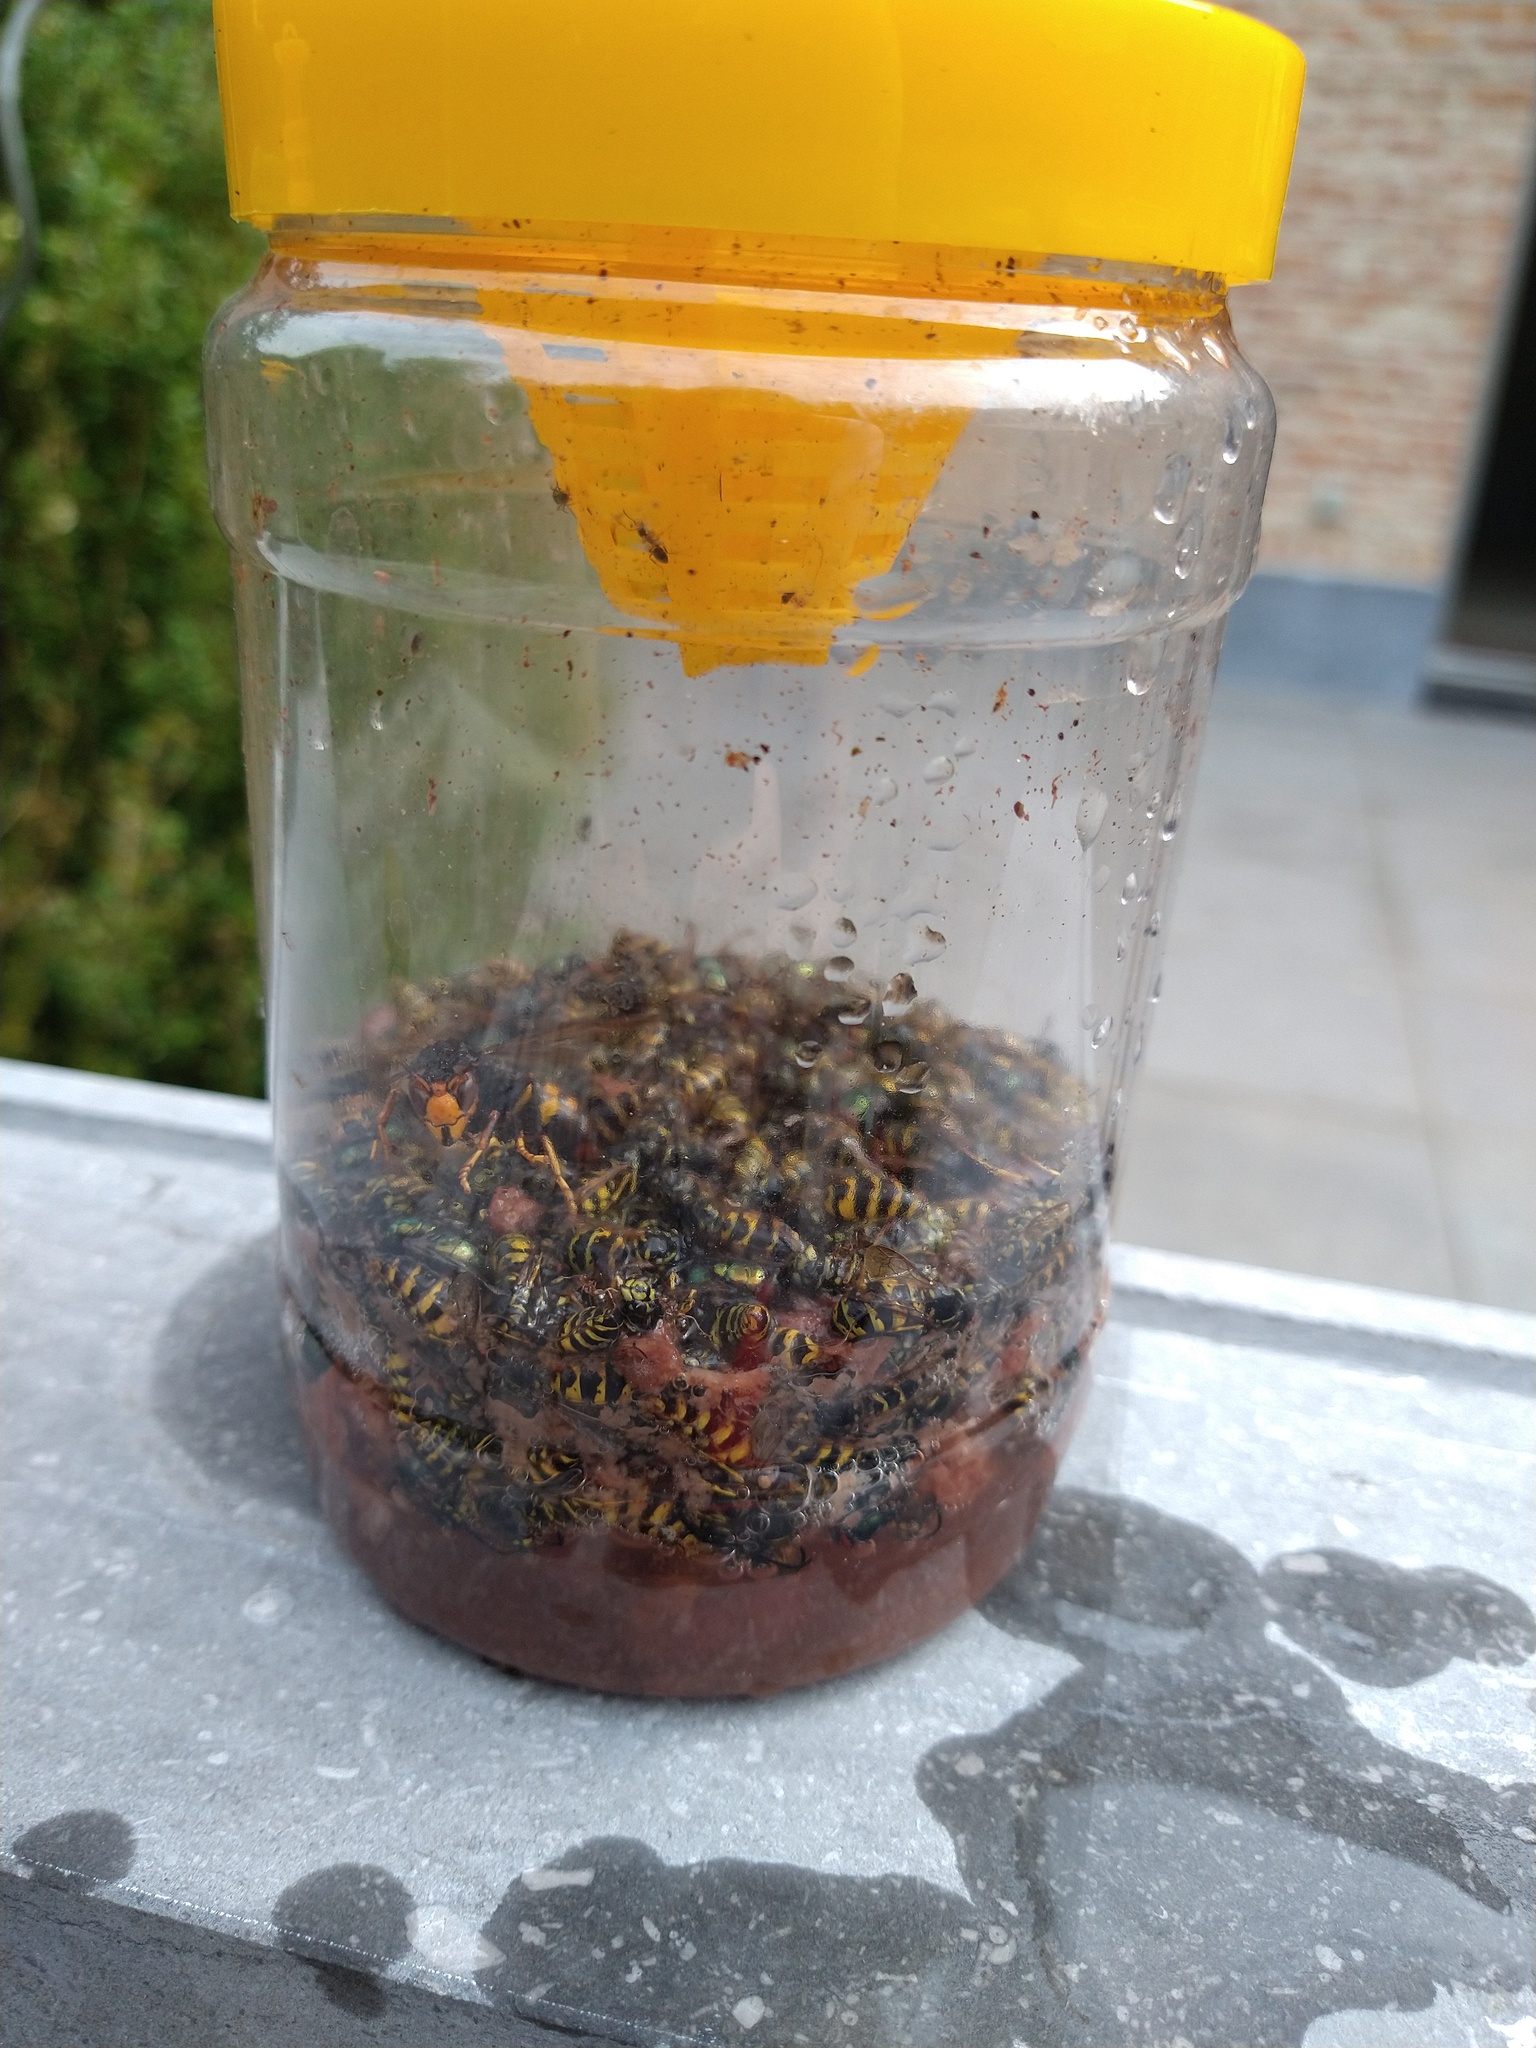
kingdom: Animalia
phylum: Arthropoda
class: Insecta
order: Hymenoptera
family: Vespidae
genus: Vespa
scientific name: Vespa velutina
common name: Asian hornet
